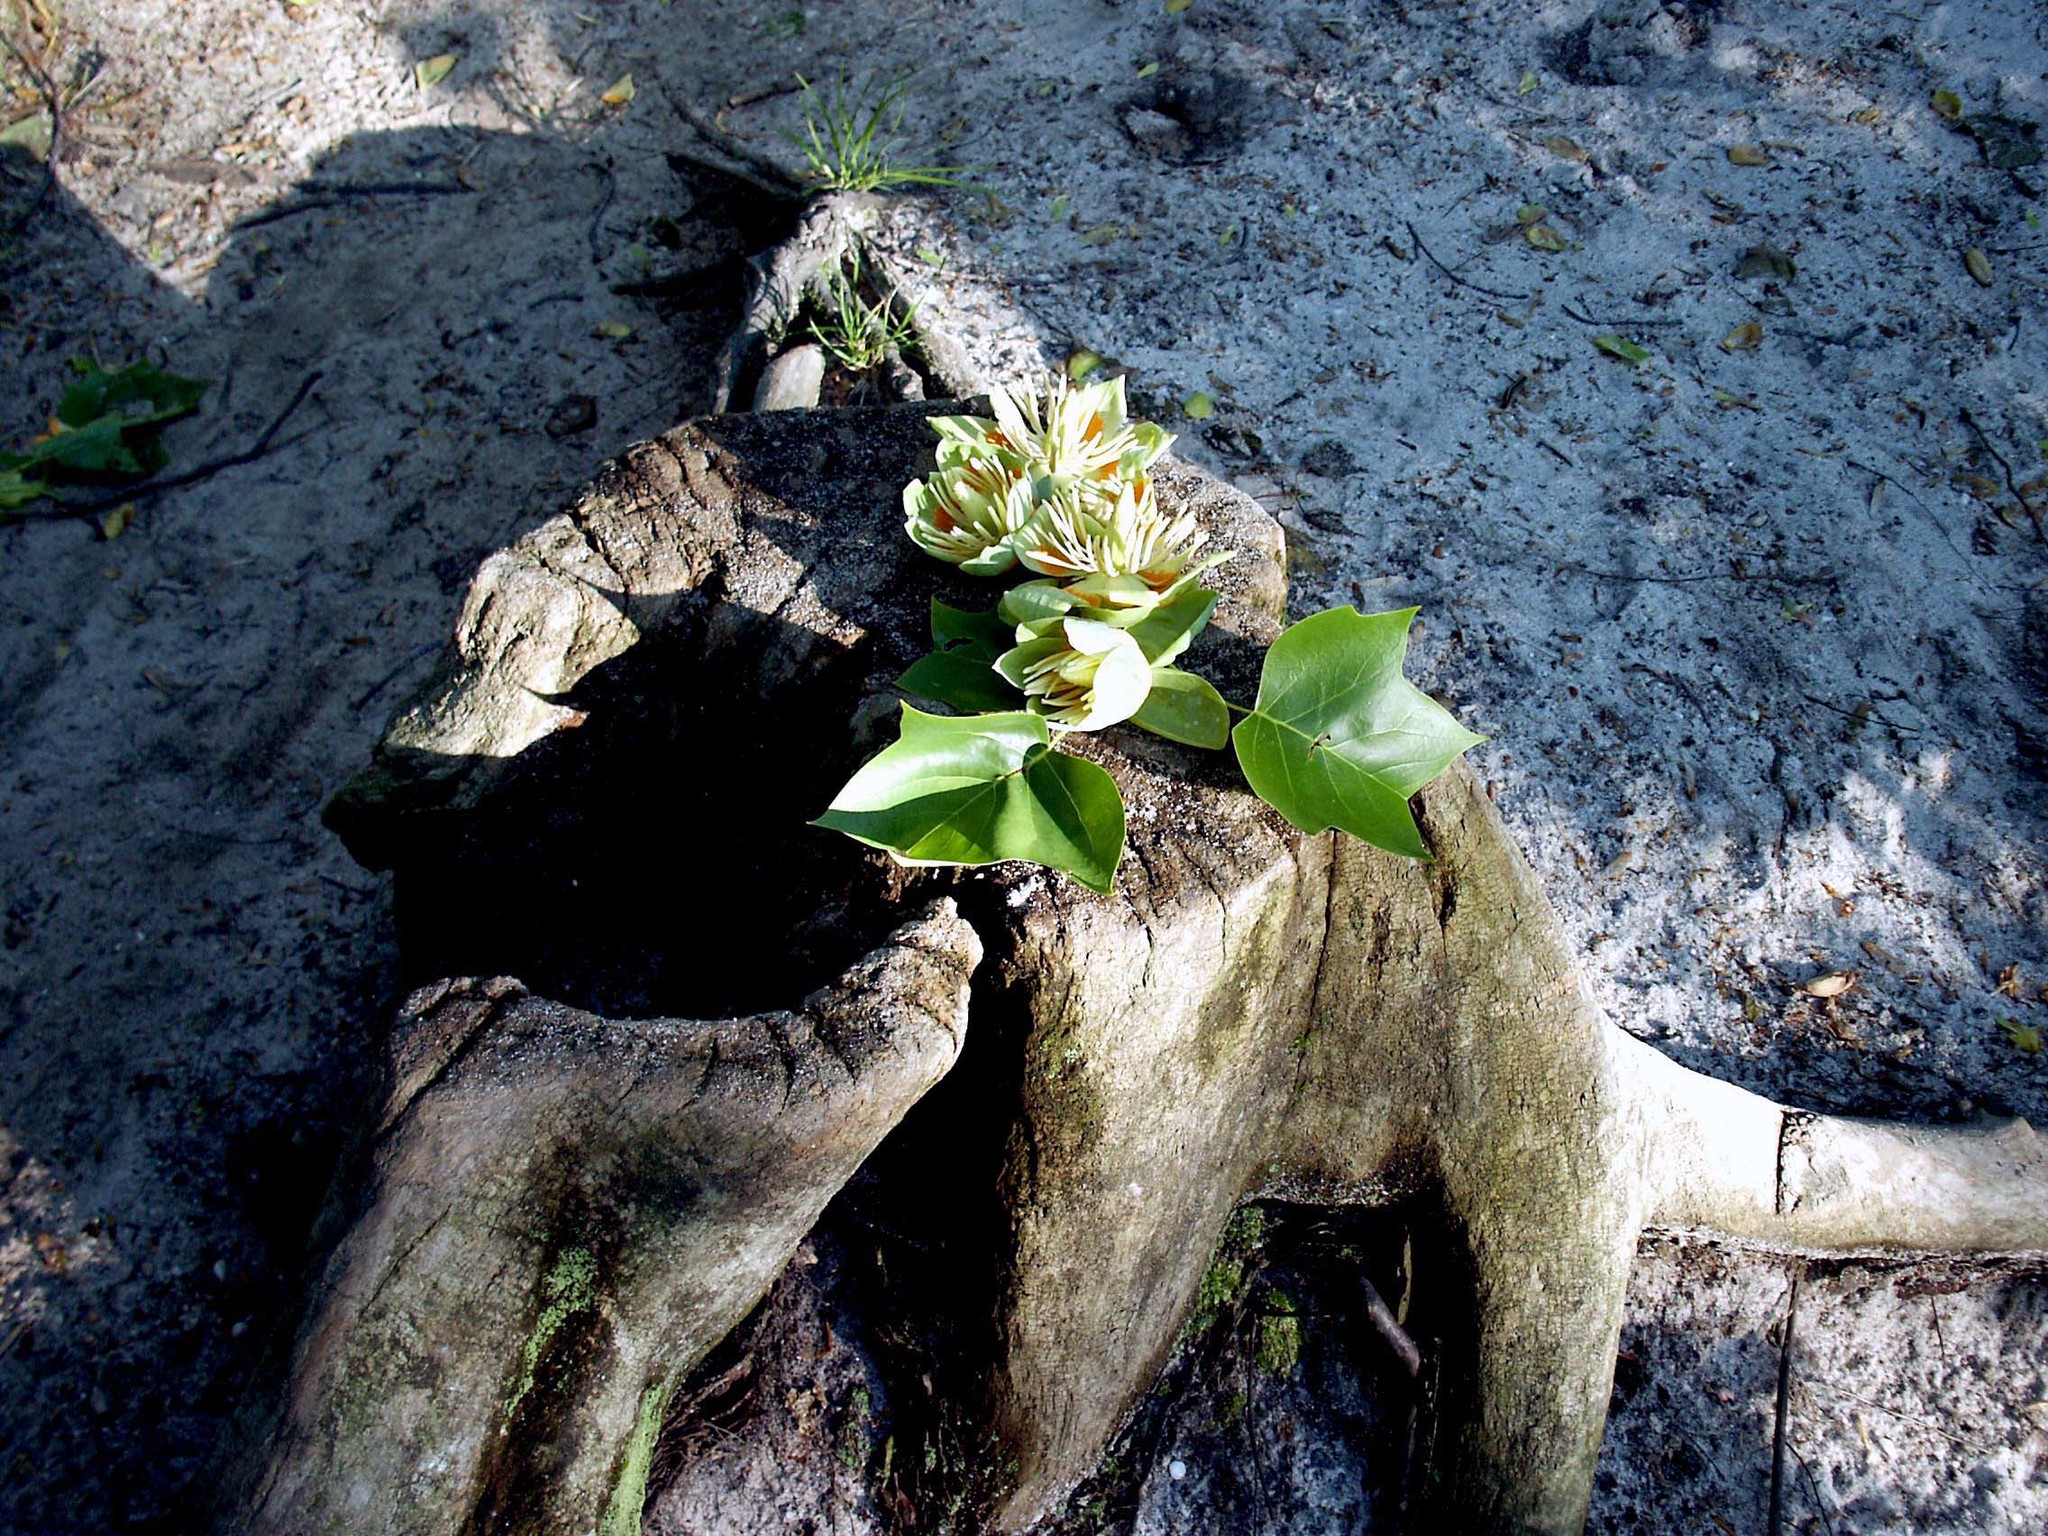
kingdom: Plantae
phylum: Tracheophyta
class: Magnoliopsida
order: Magnoliales
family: Magnoliaceae
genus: Liriodendron
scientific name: Liriodendron tulipifera
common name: Tulip tree
